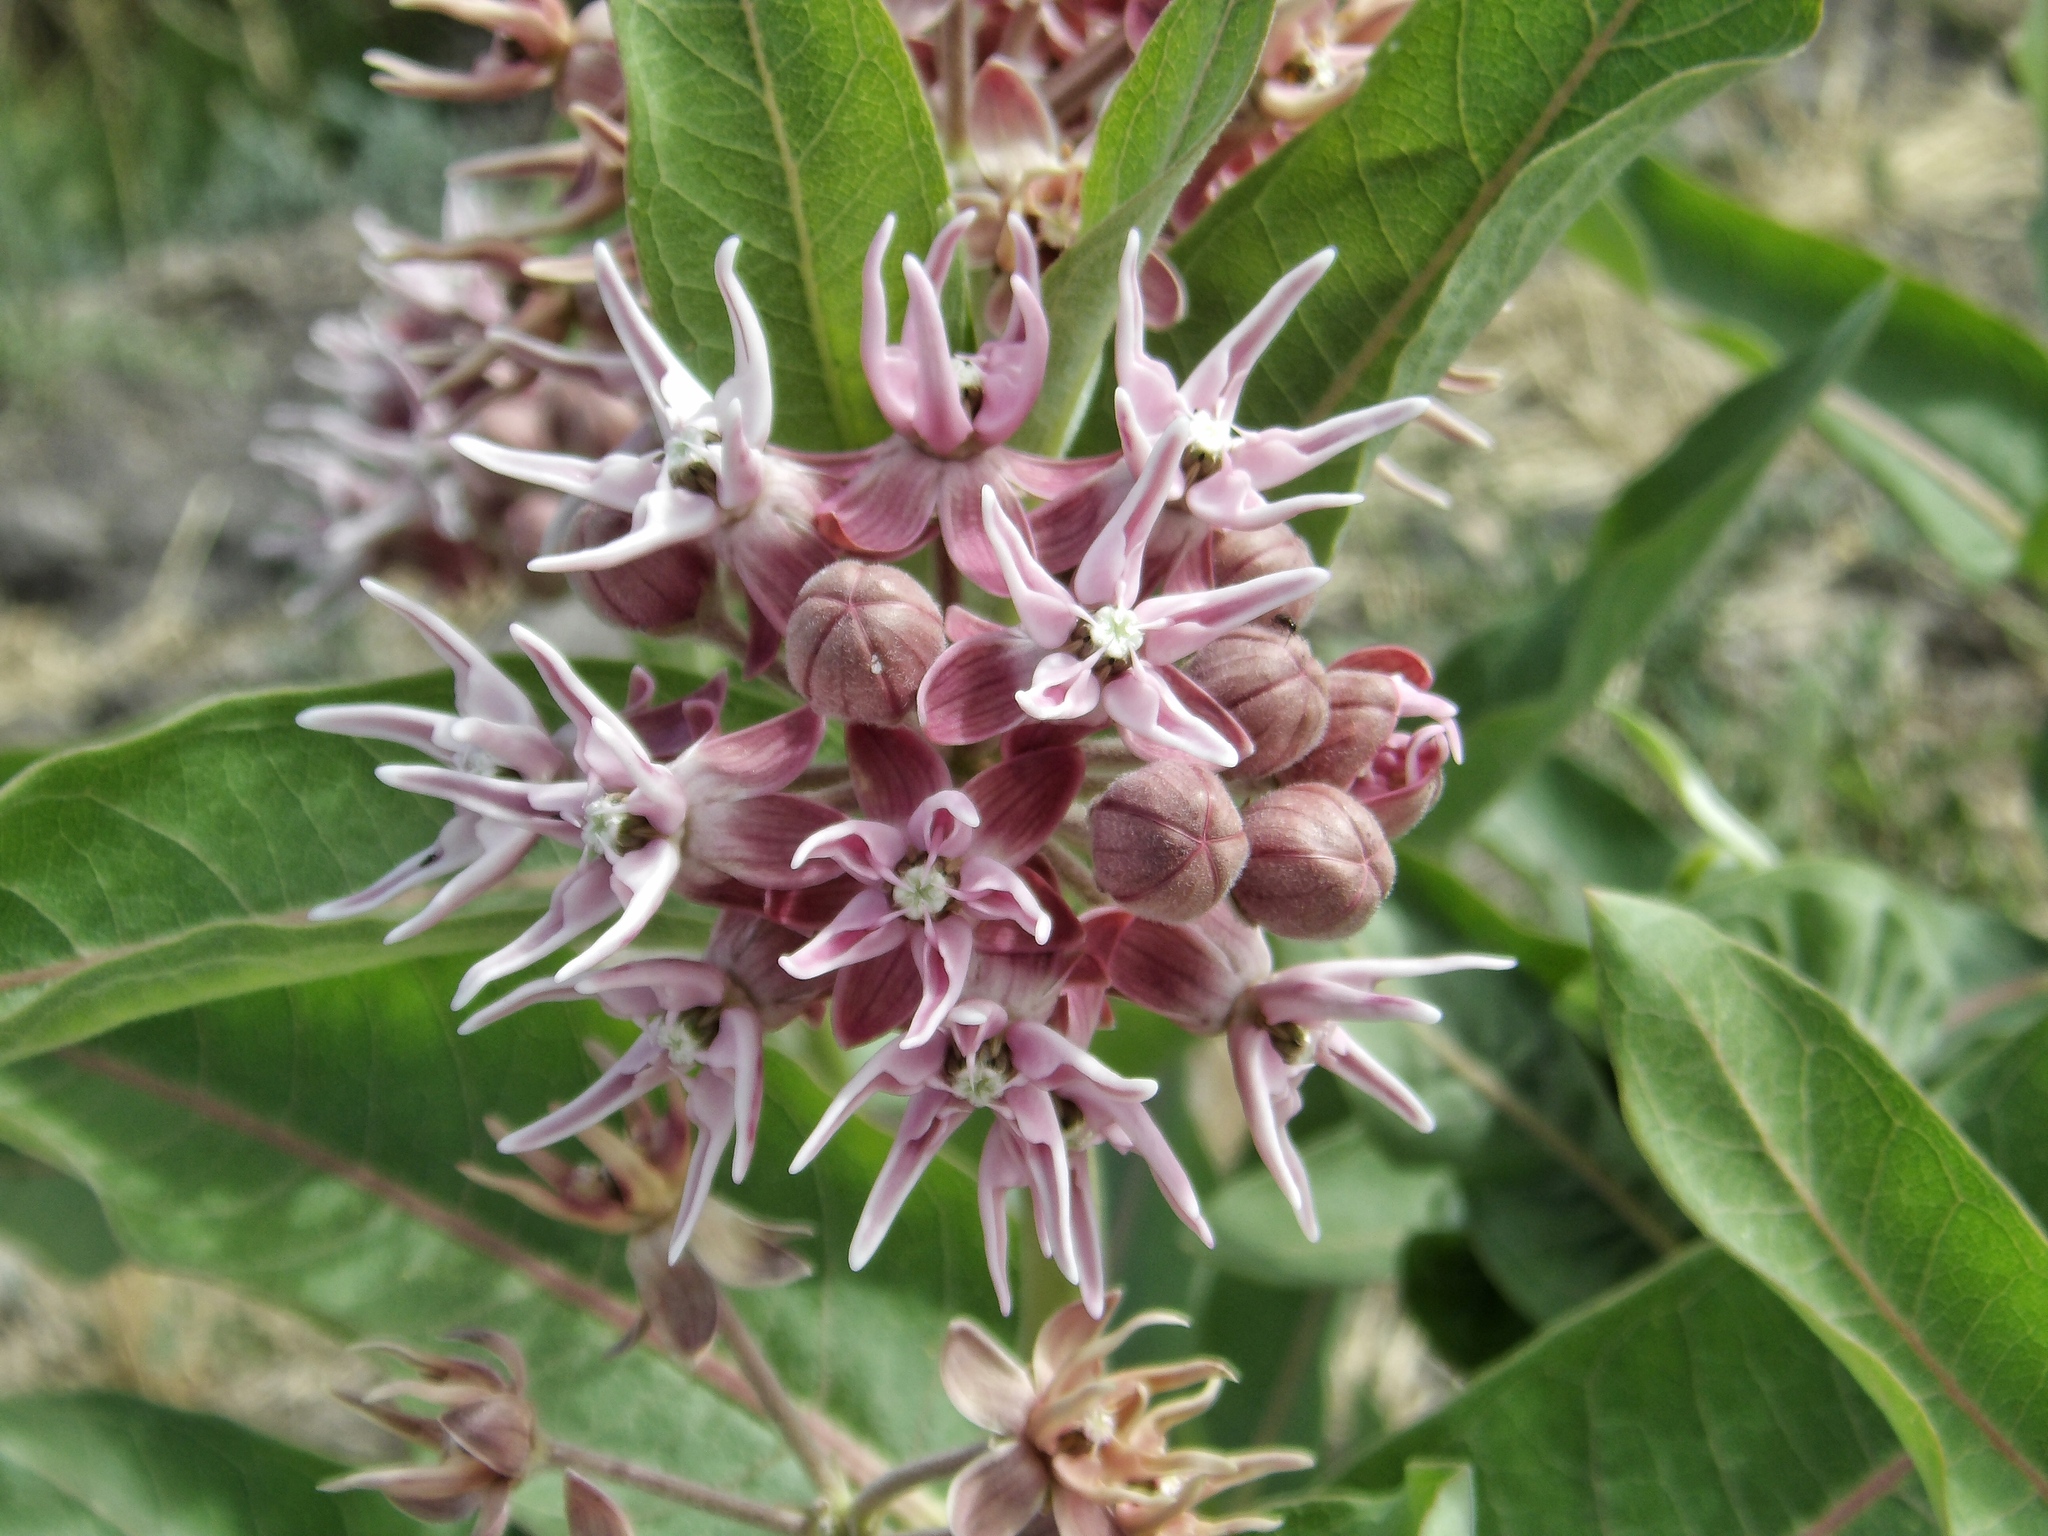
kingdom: Plantae
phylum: Tracheophyta
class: Magnoliopsida
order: Gentianales
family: Apocynaceae
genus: Asclepias
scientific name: Asclepias speciosa
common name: Showy milkweed
